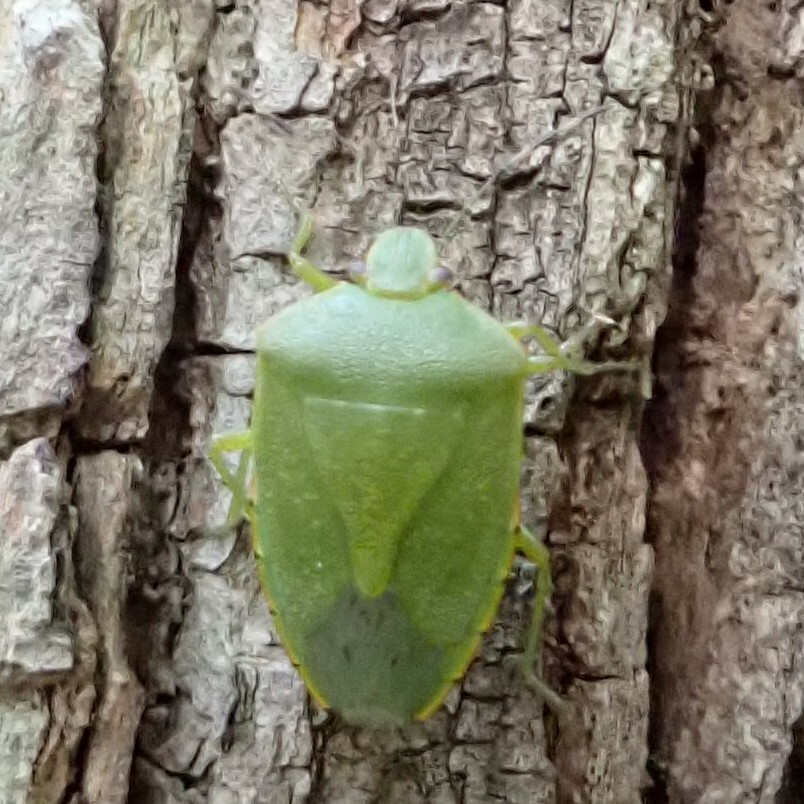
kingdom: Animalia
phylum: Arthropoda
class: Insecta
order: Hemiptera
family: Pentatomidae
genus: Chinavia
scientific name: Chinavia hilaris
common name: Green stink bug
